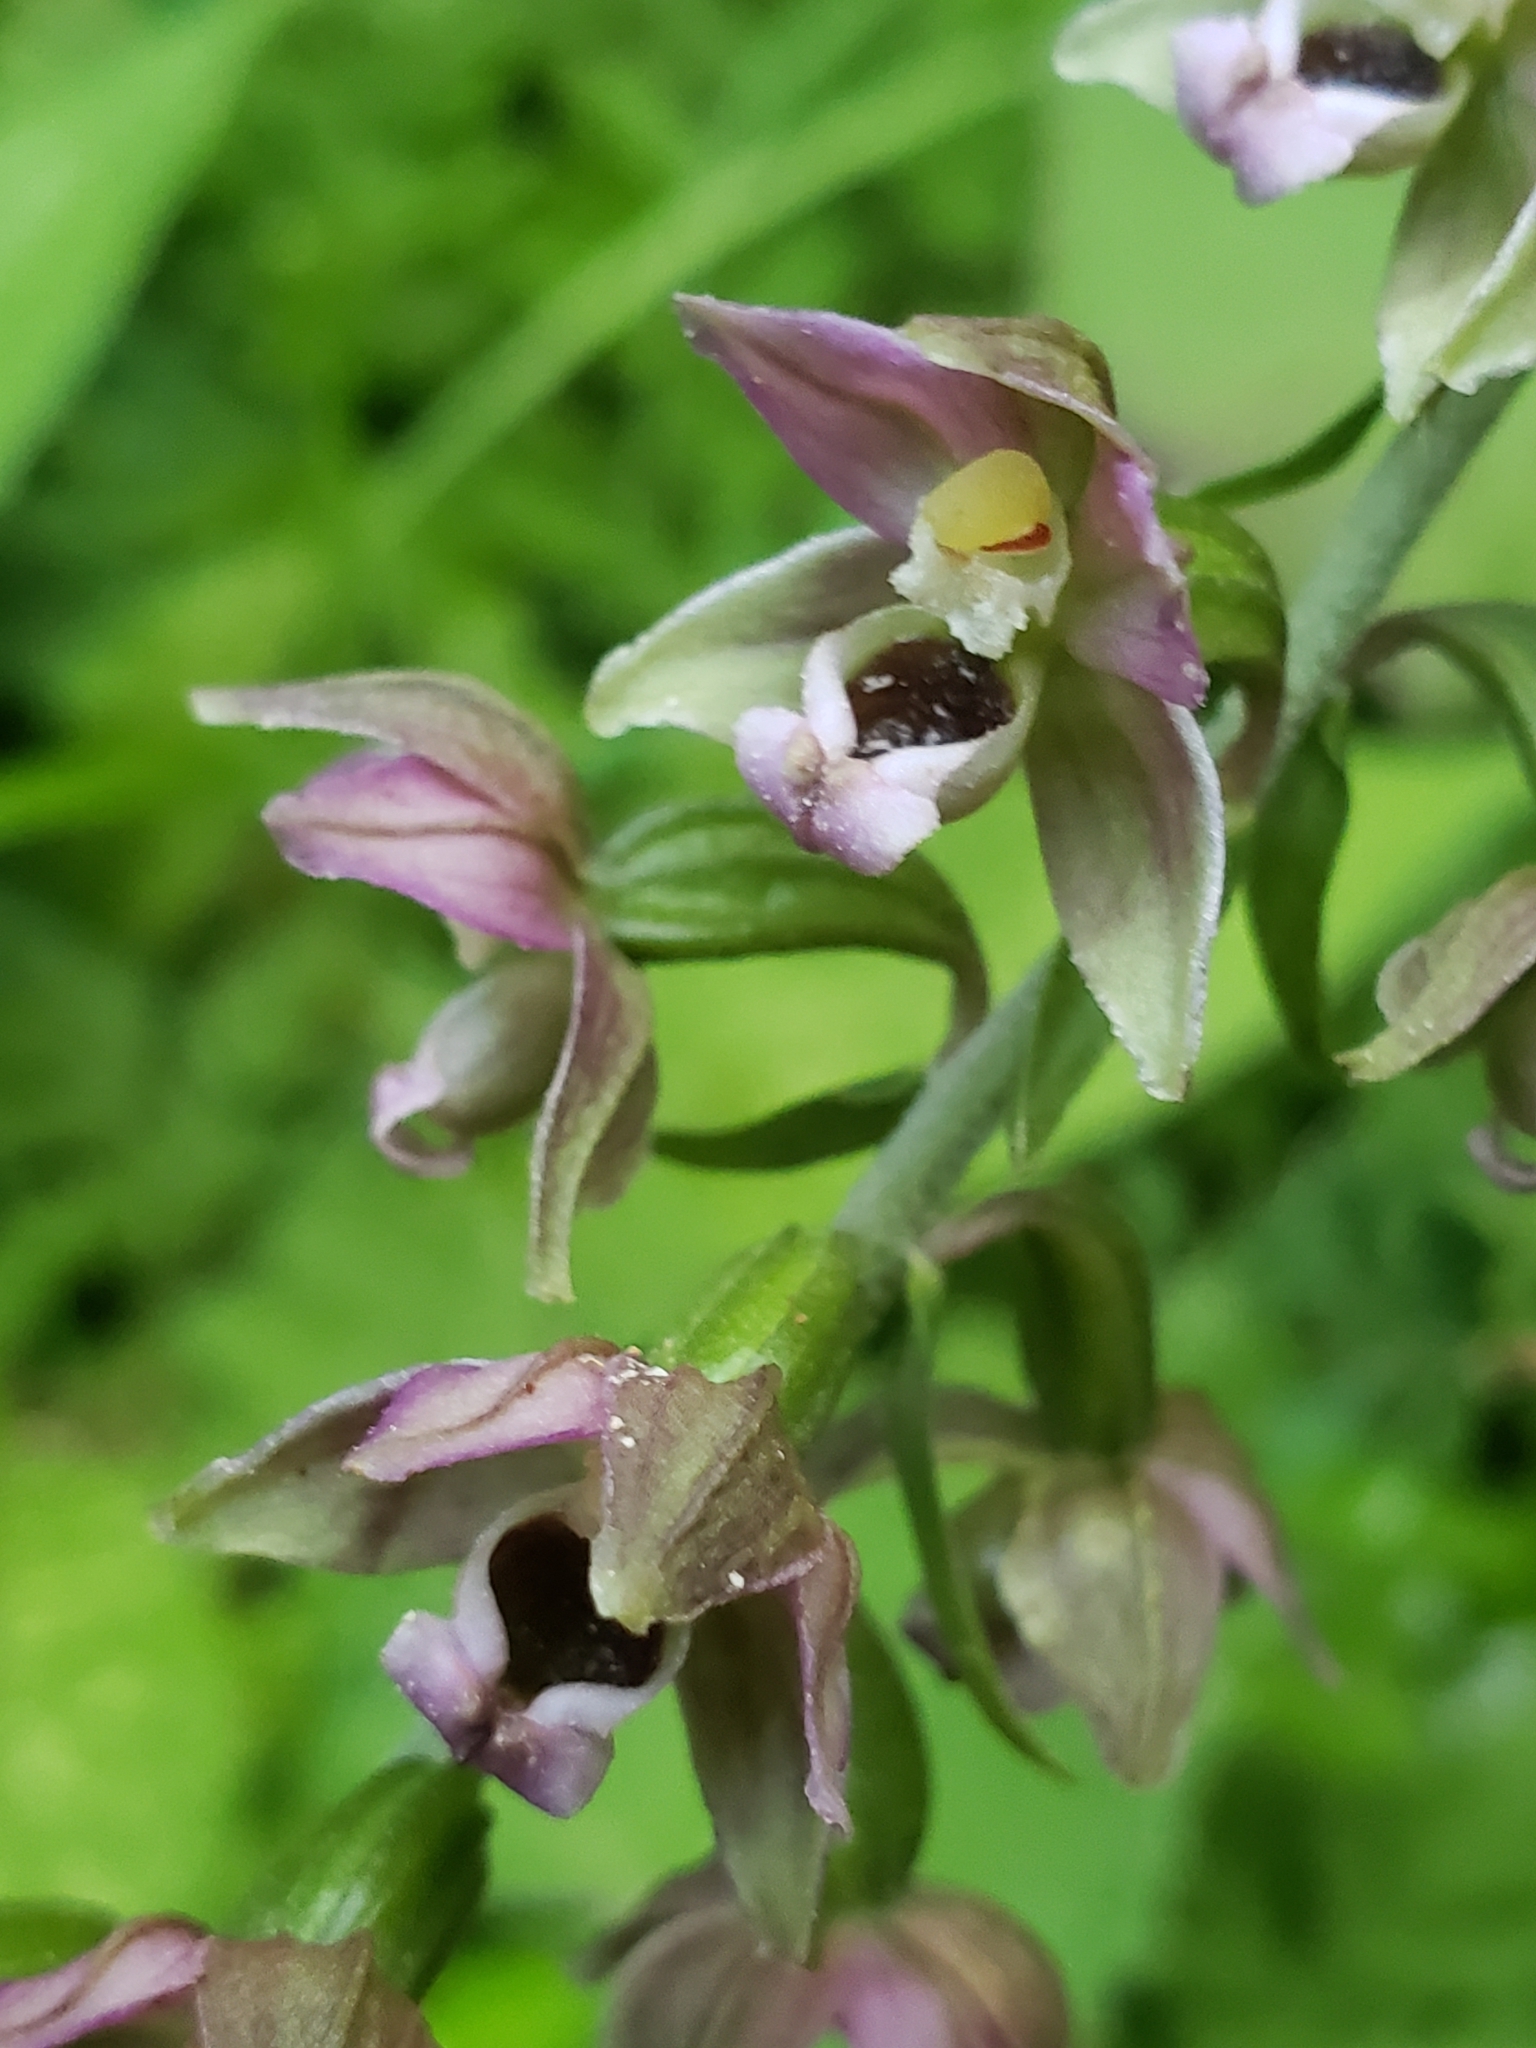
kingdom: Plantae
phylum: Tracheophyta
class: Liliopsida
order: Asparagales
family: Orchidaceae
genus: Epipactis
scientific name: Epipactis helleborine
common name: Broad-leaved helleborine
